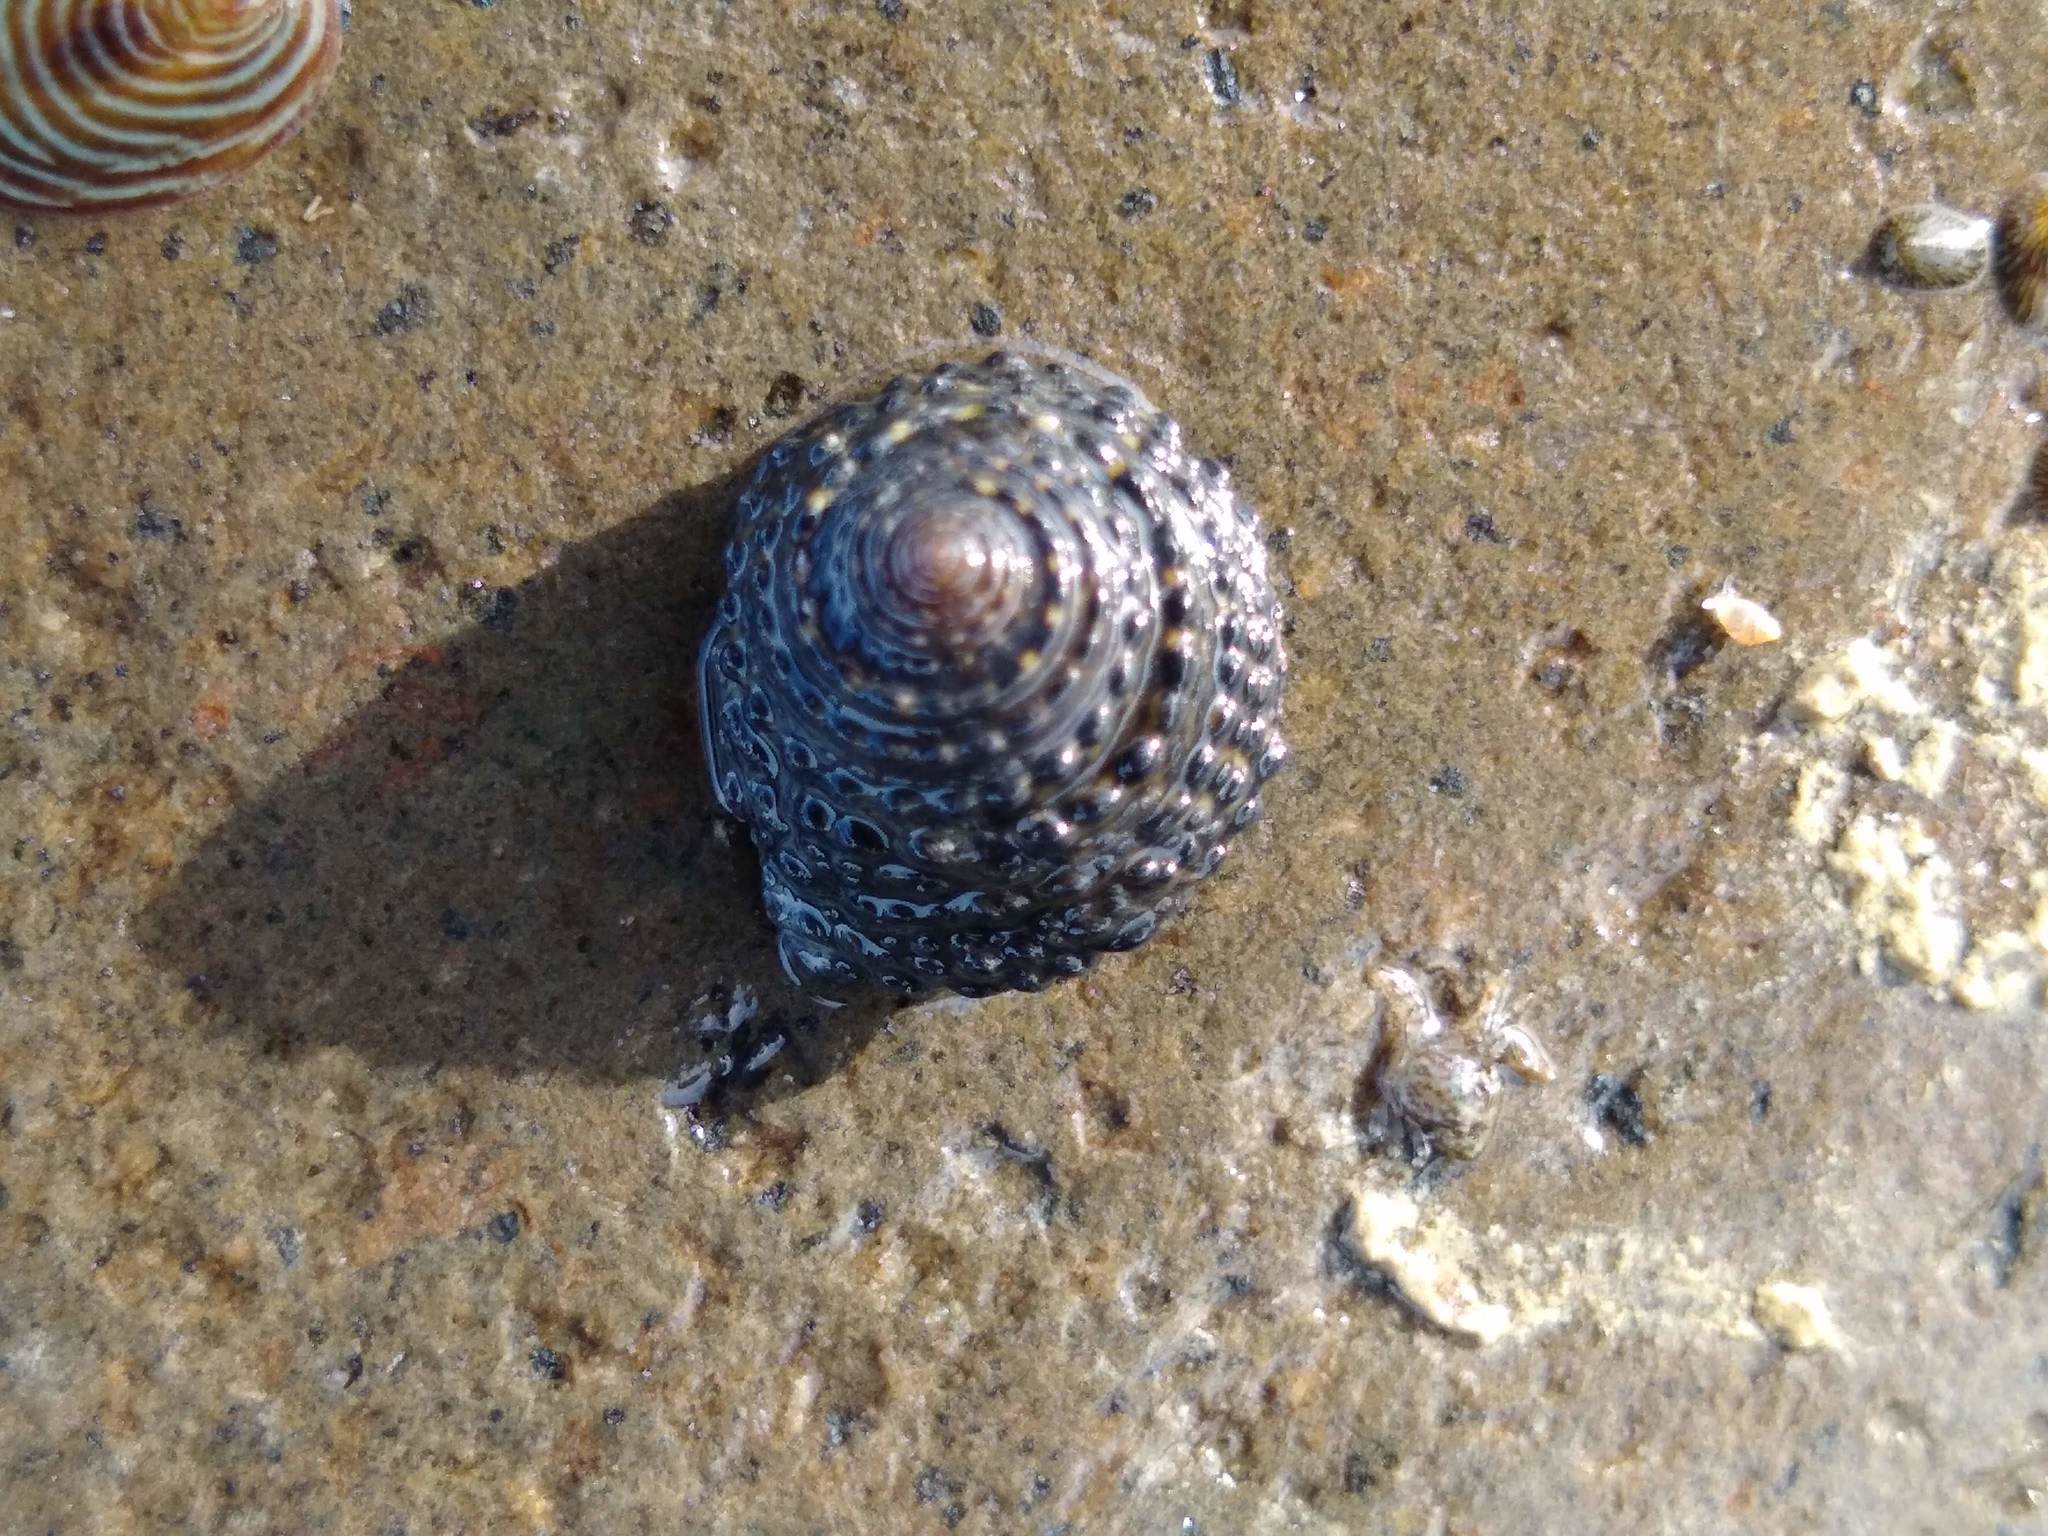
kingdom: Animalia
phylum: Mollusca
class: Gastropoda
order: Trochida
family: Trochidae
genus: Diloma
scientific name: Diloma bicanaliculatum
